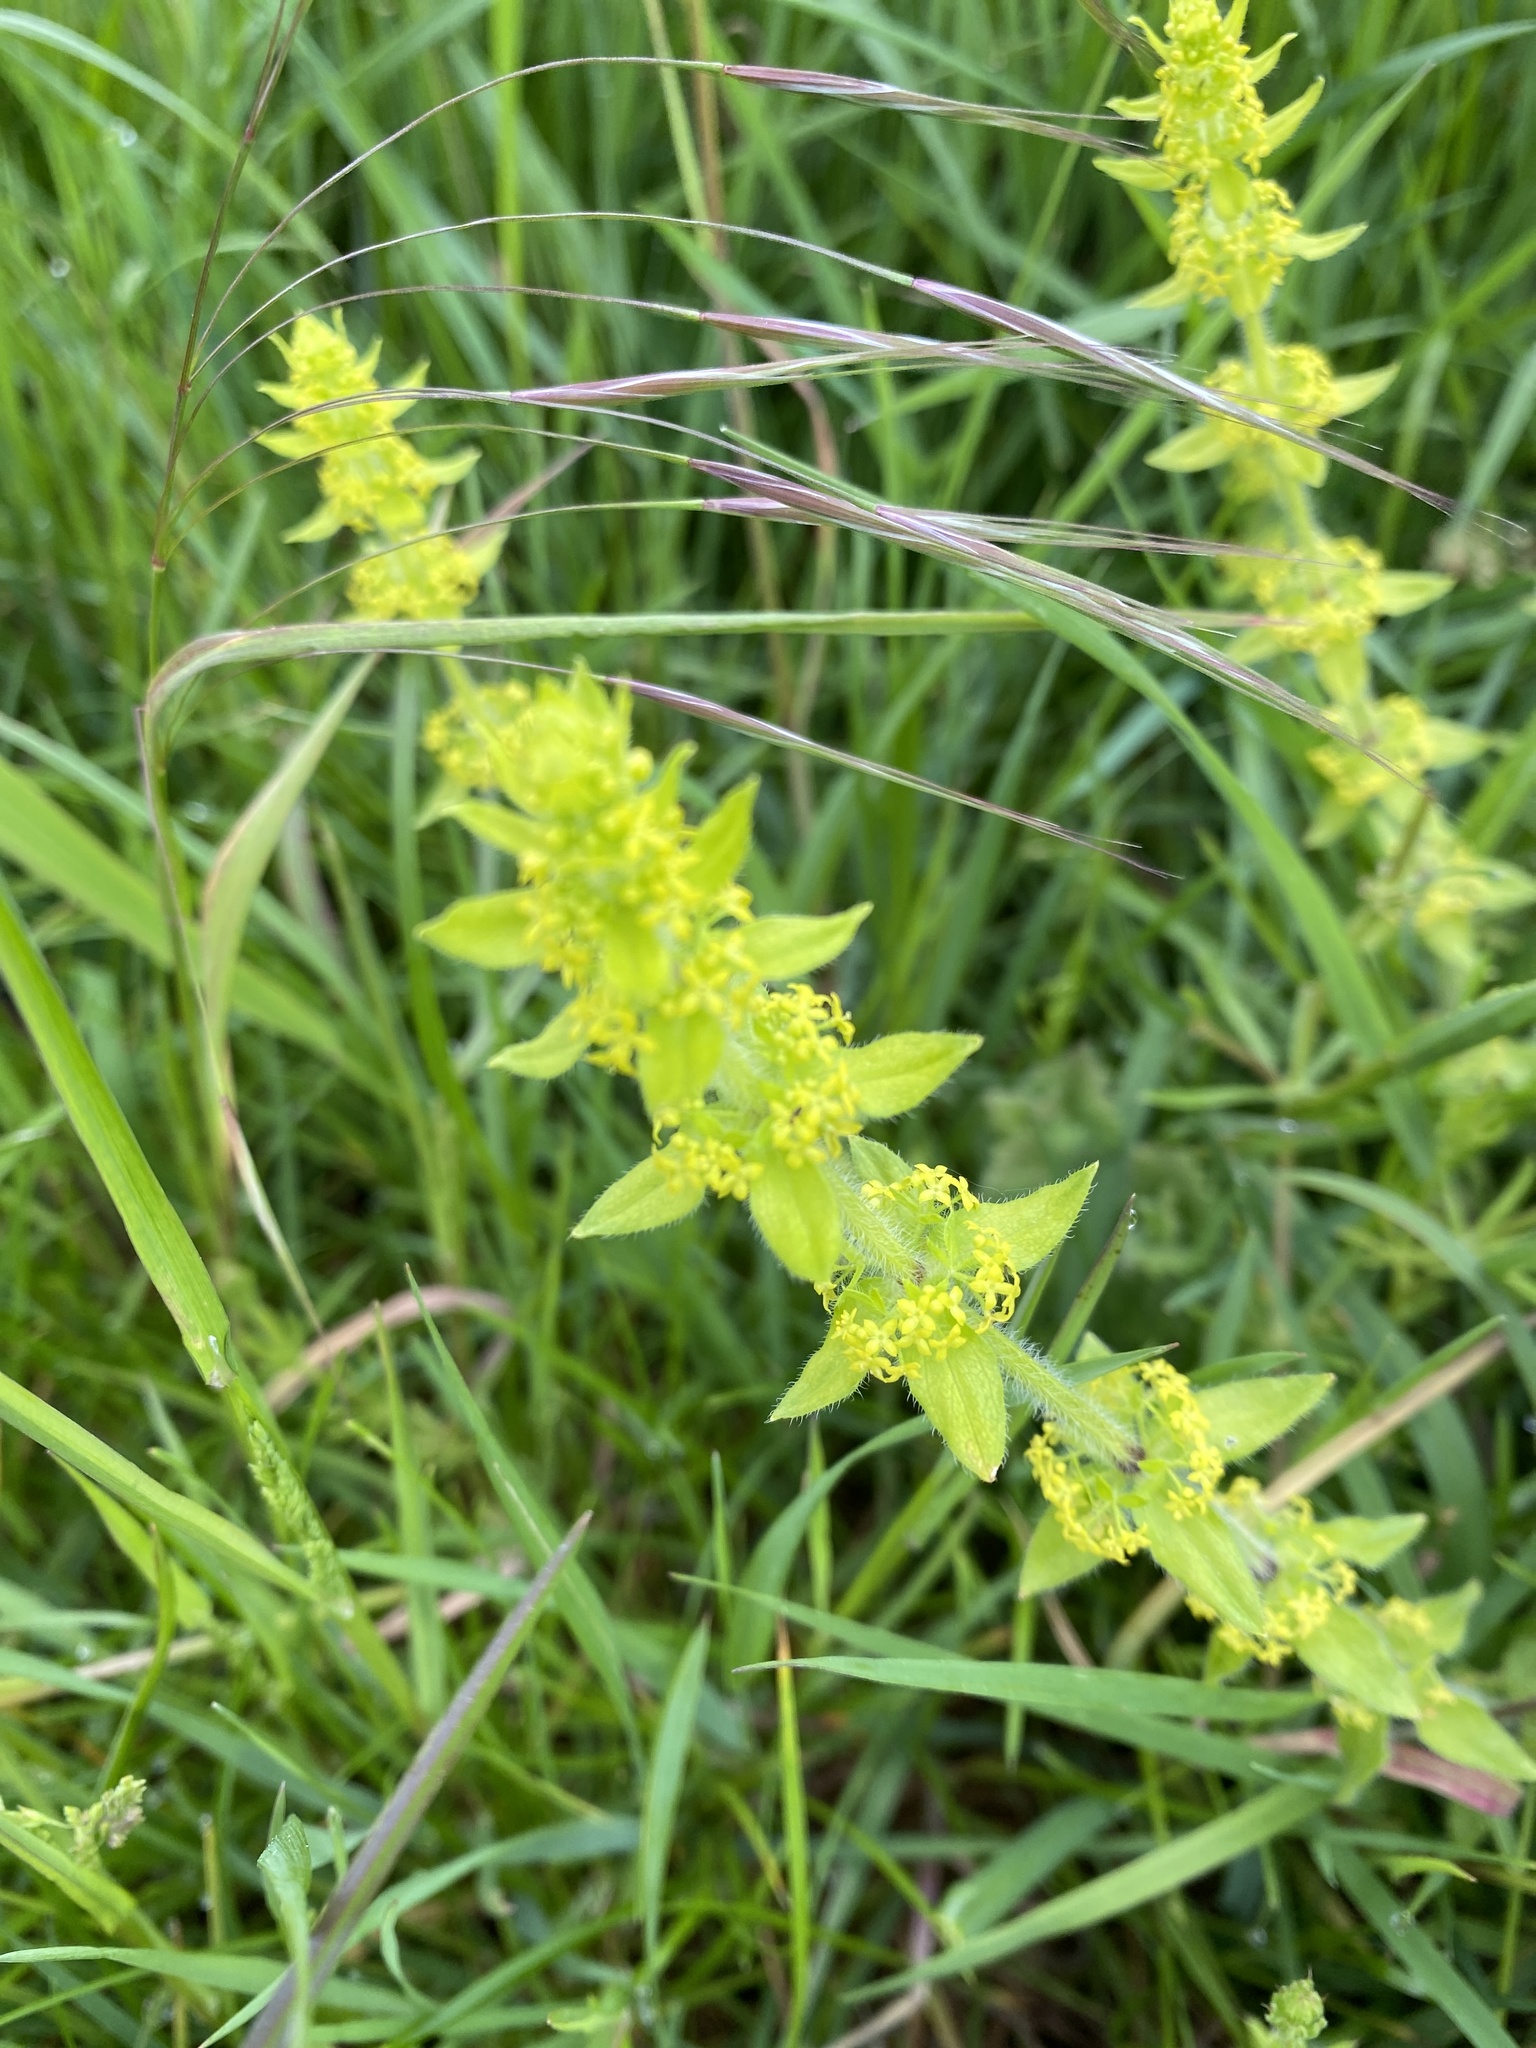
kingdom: Plantae
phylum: Tracheophyta
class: Magnoliopsida
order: Gentianales
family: Rubiaceae
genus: Cruciata
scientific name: Cruciata laevipes
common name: Crosswort
